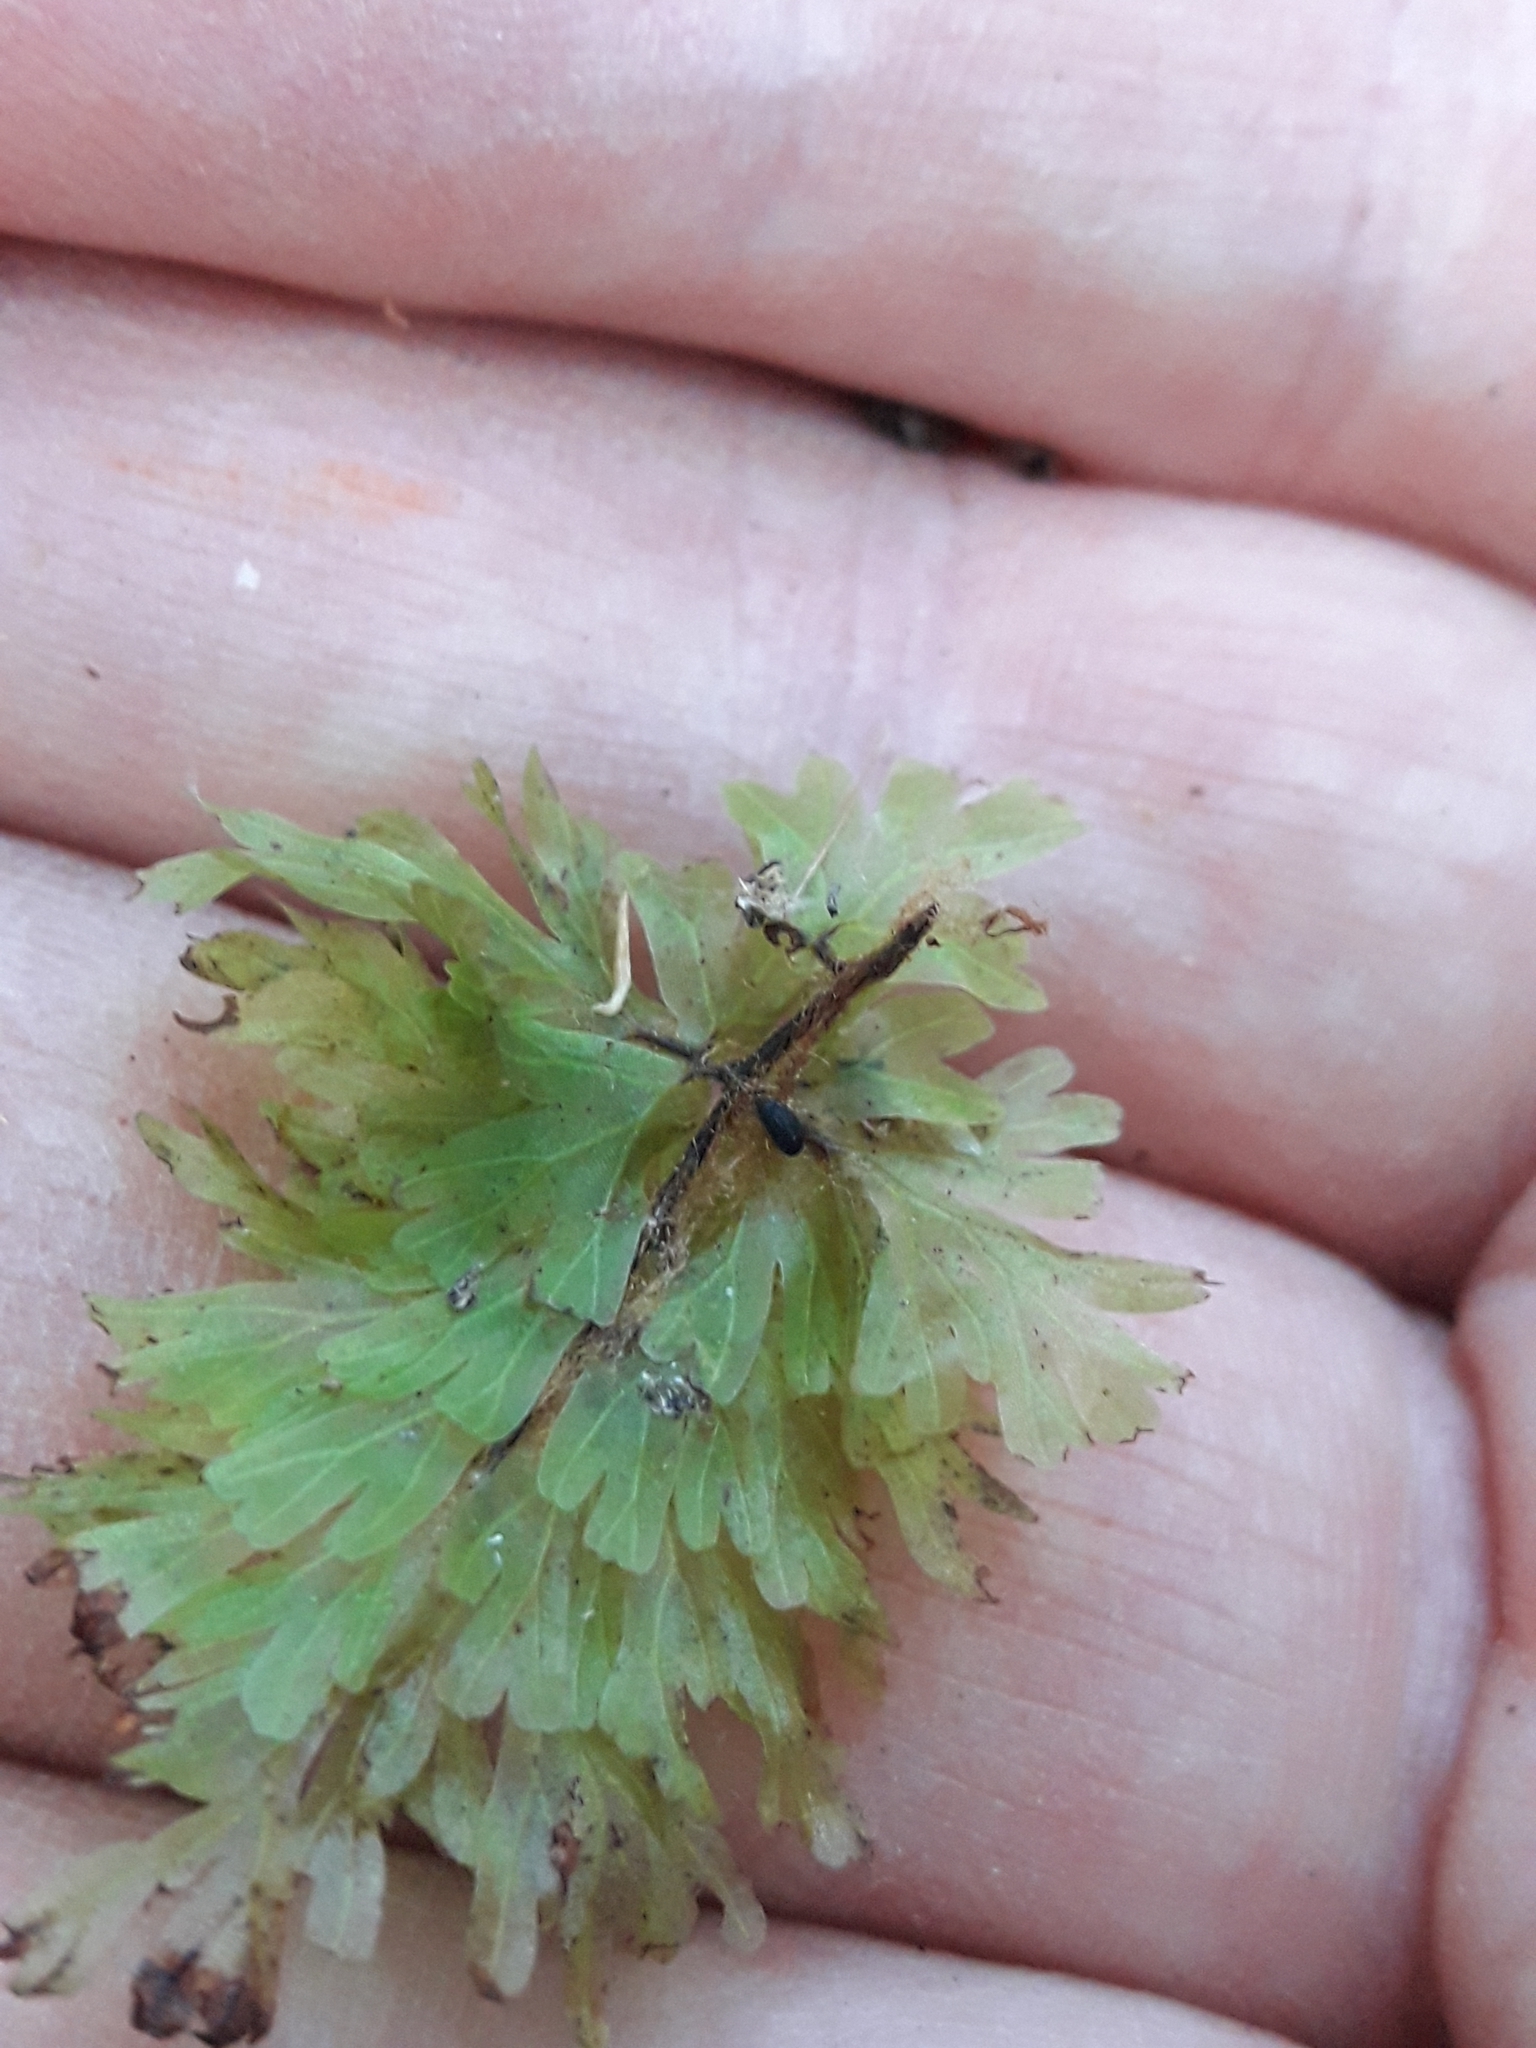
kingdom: Plantae
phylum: Tracheophyta
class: Polypodiopsida
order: Hymenophyllales
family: Hymenophyllaceae
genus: Hymenophyllum
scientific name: Hymenophyllum flabellatum
